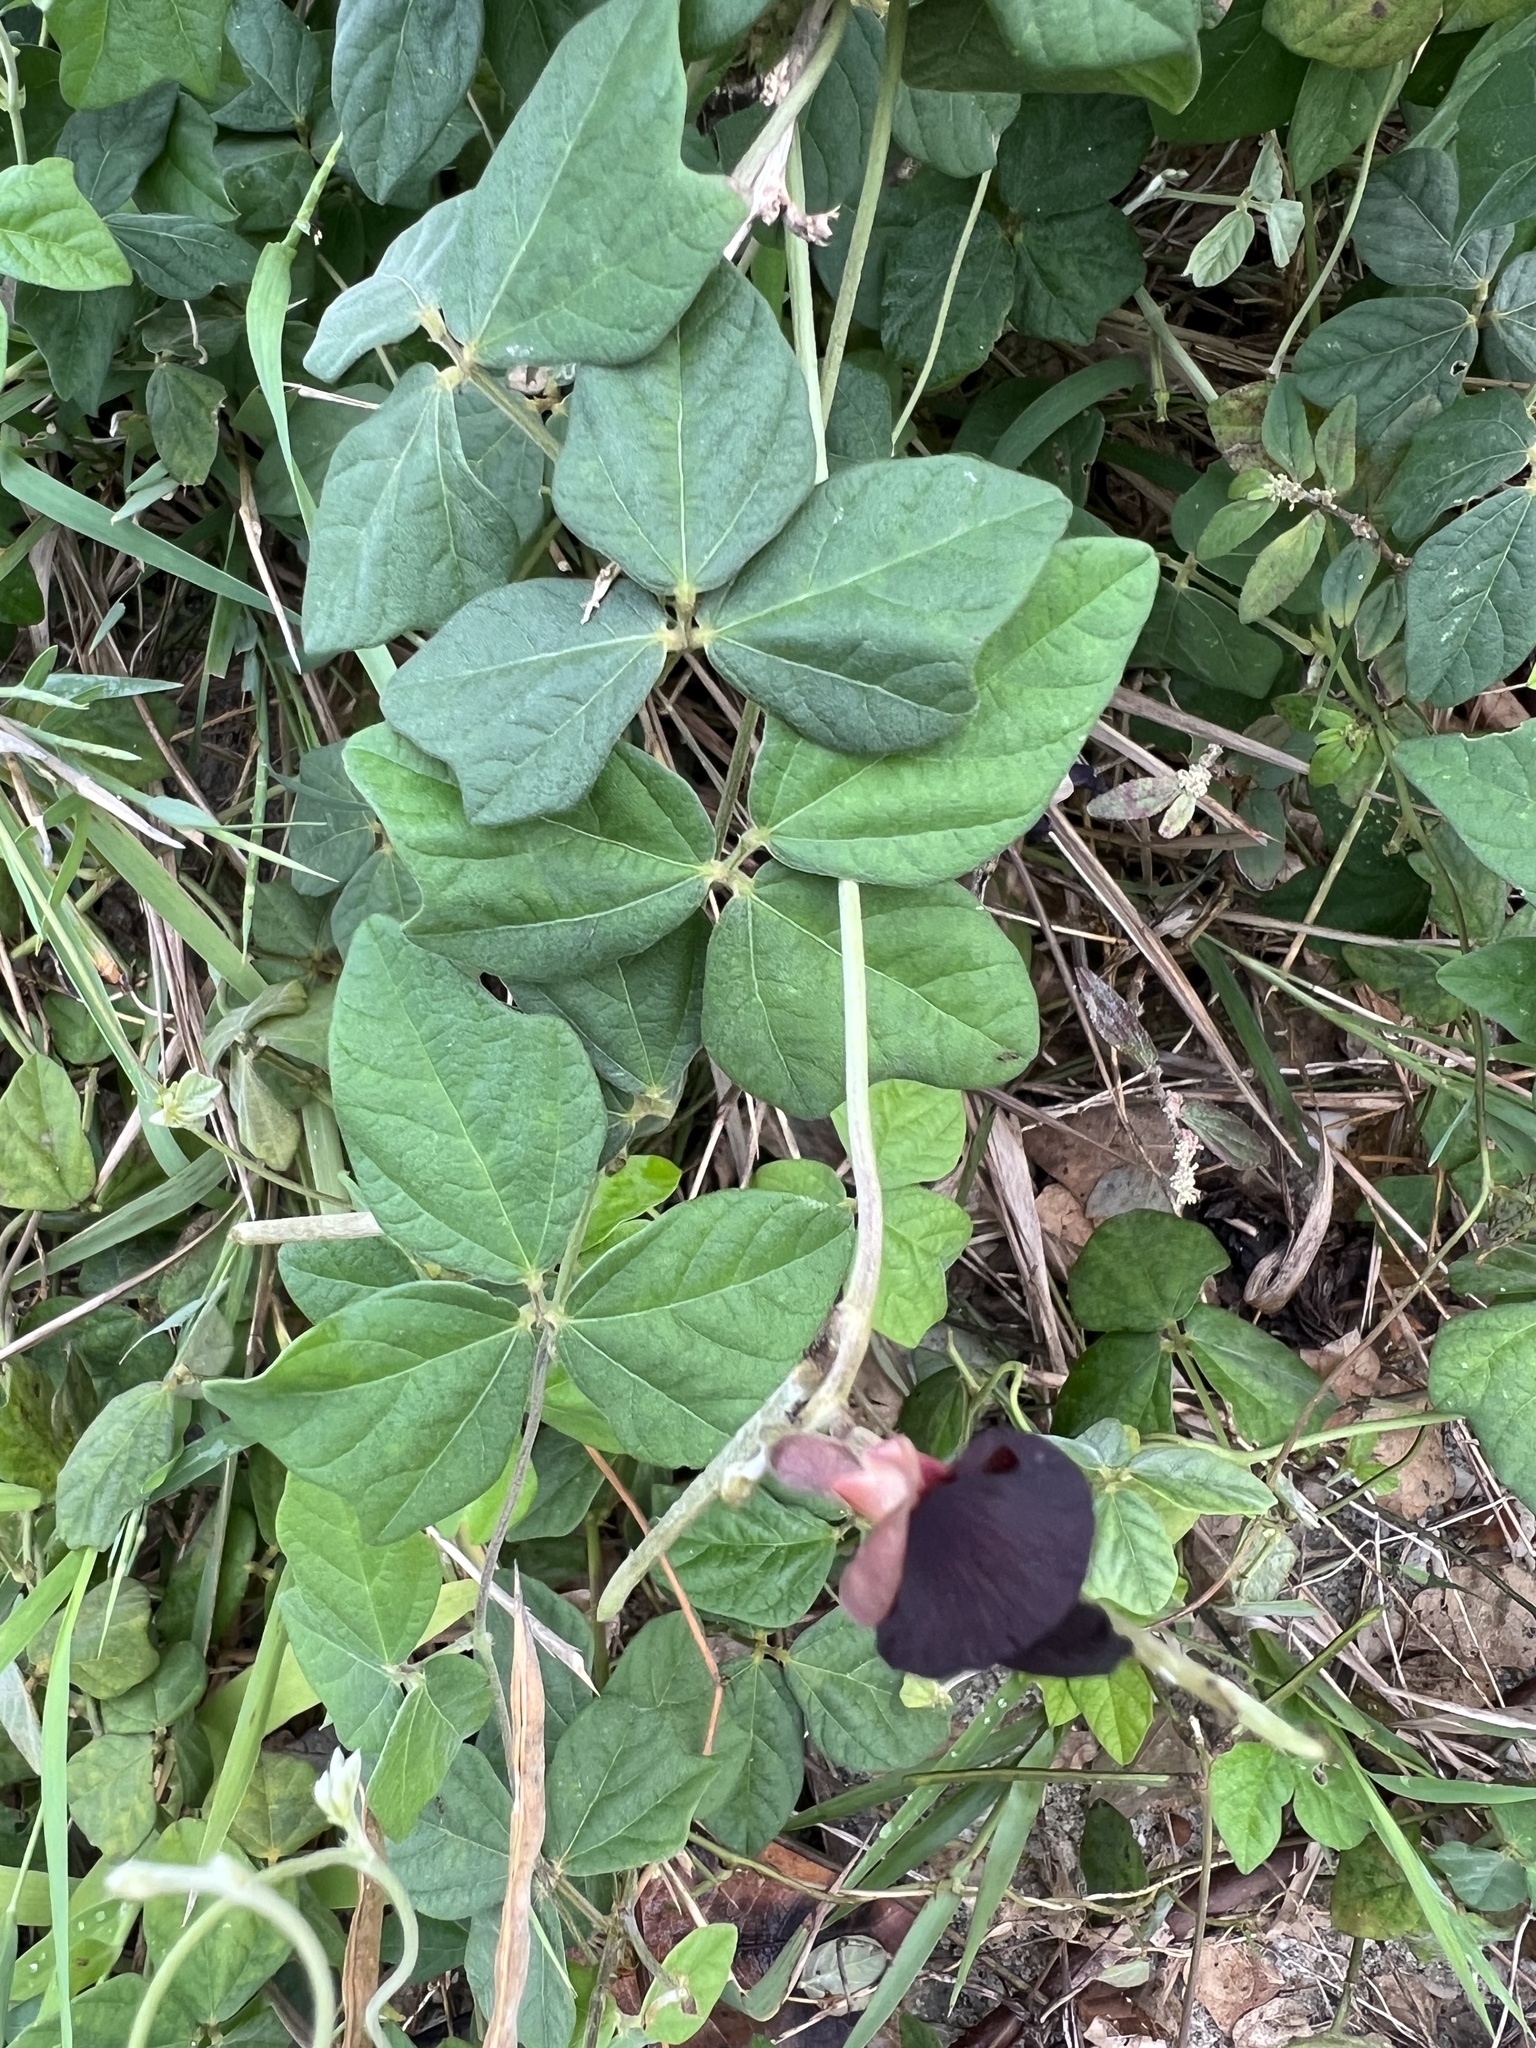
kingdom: Plantae
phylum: Tracheophyta
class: Magnoliopsida
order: Fabales
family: Fabaceae
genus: Macroptilium
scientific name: Macroptilium atropurpureum
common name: Purple bushbean
